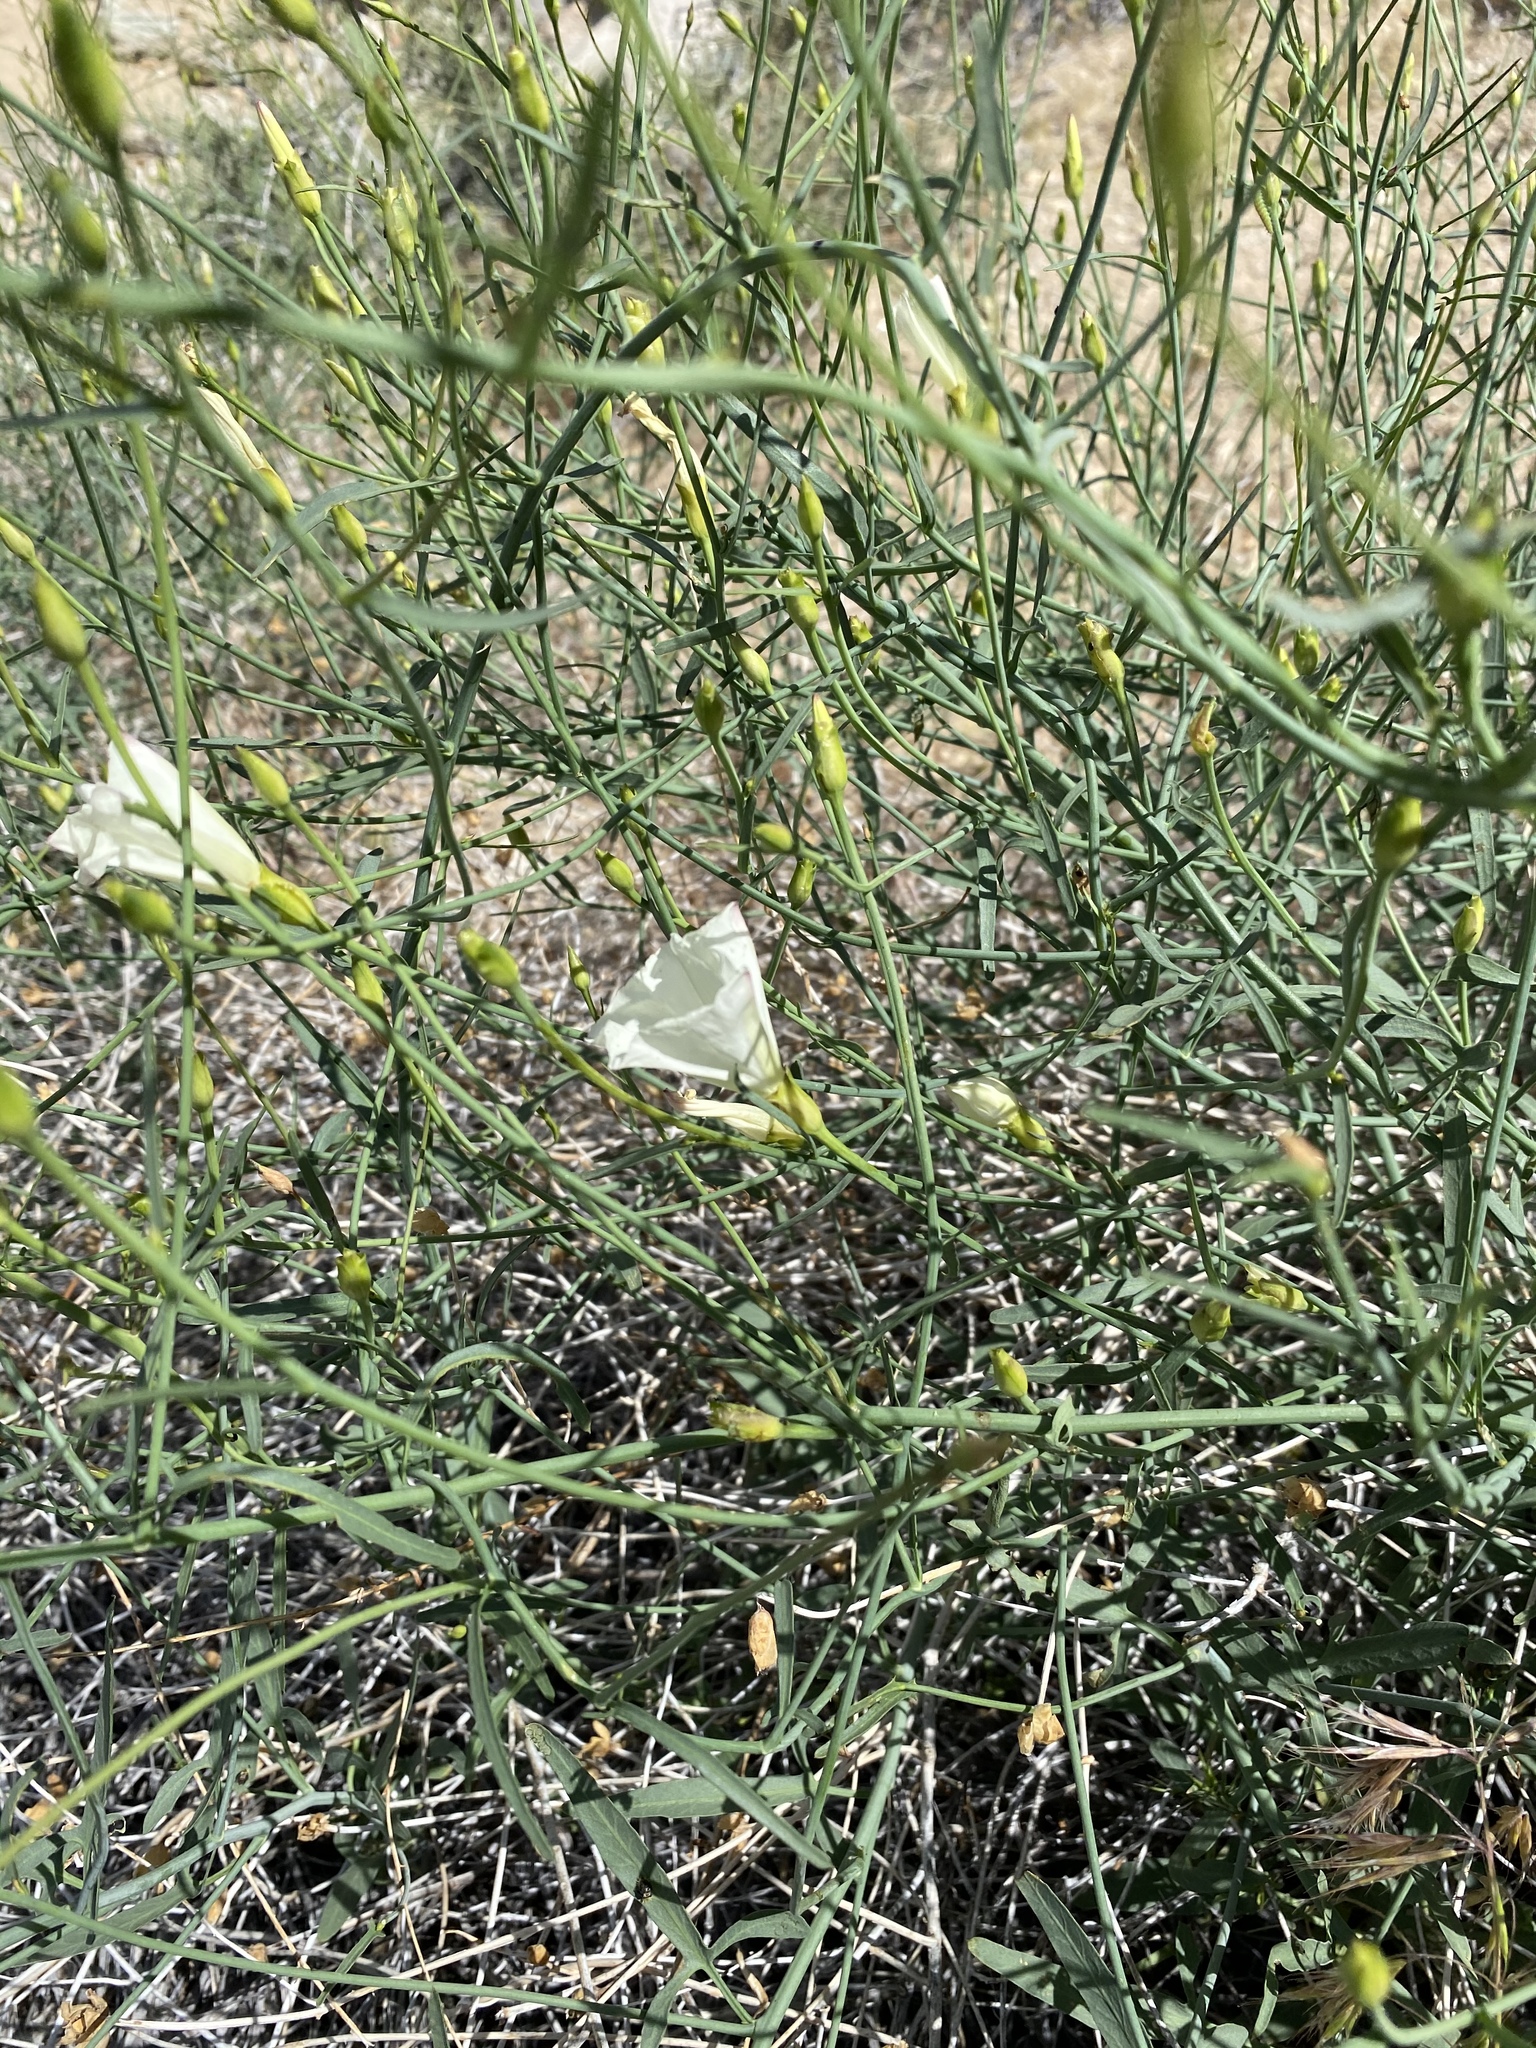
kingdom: Plantae
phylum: Tracheophyta
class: Magnoliopsida
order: Solanales
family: Convolvulaceae
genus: Calystegia
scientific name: Calystegia longipes
